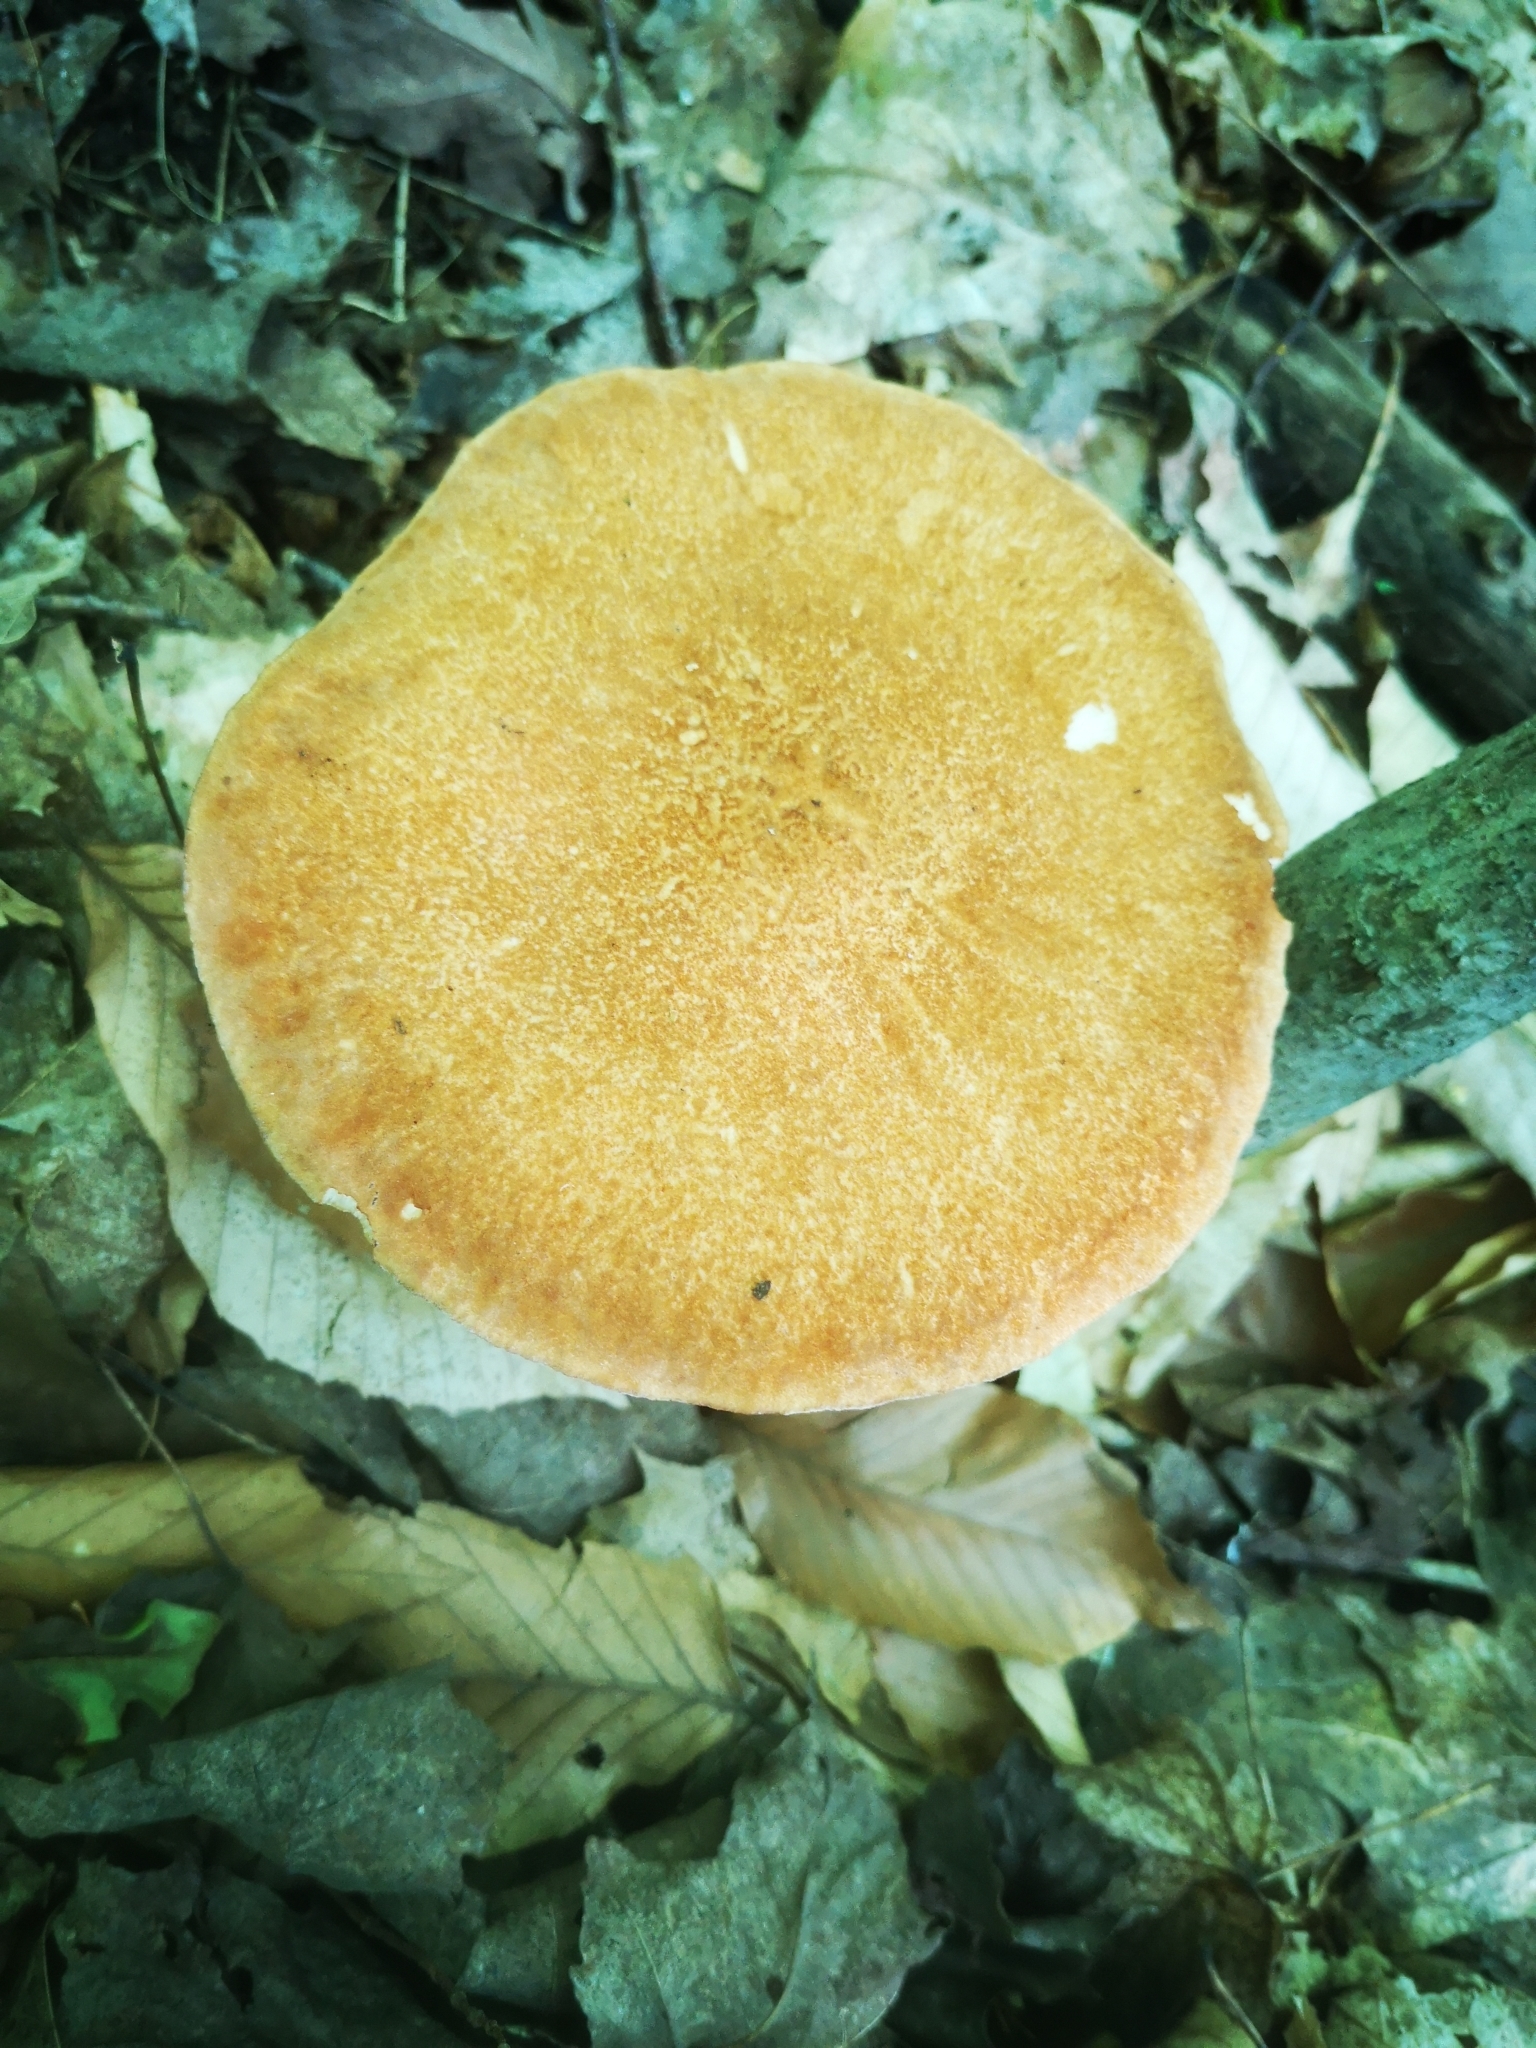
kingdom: Fungi
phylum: Basidiomycota
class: Agaricomycetes
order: Polyporales
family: Polyporaceae
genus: Polyporus
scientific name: Polyporus radicatus
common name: Rooting polypore
